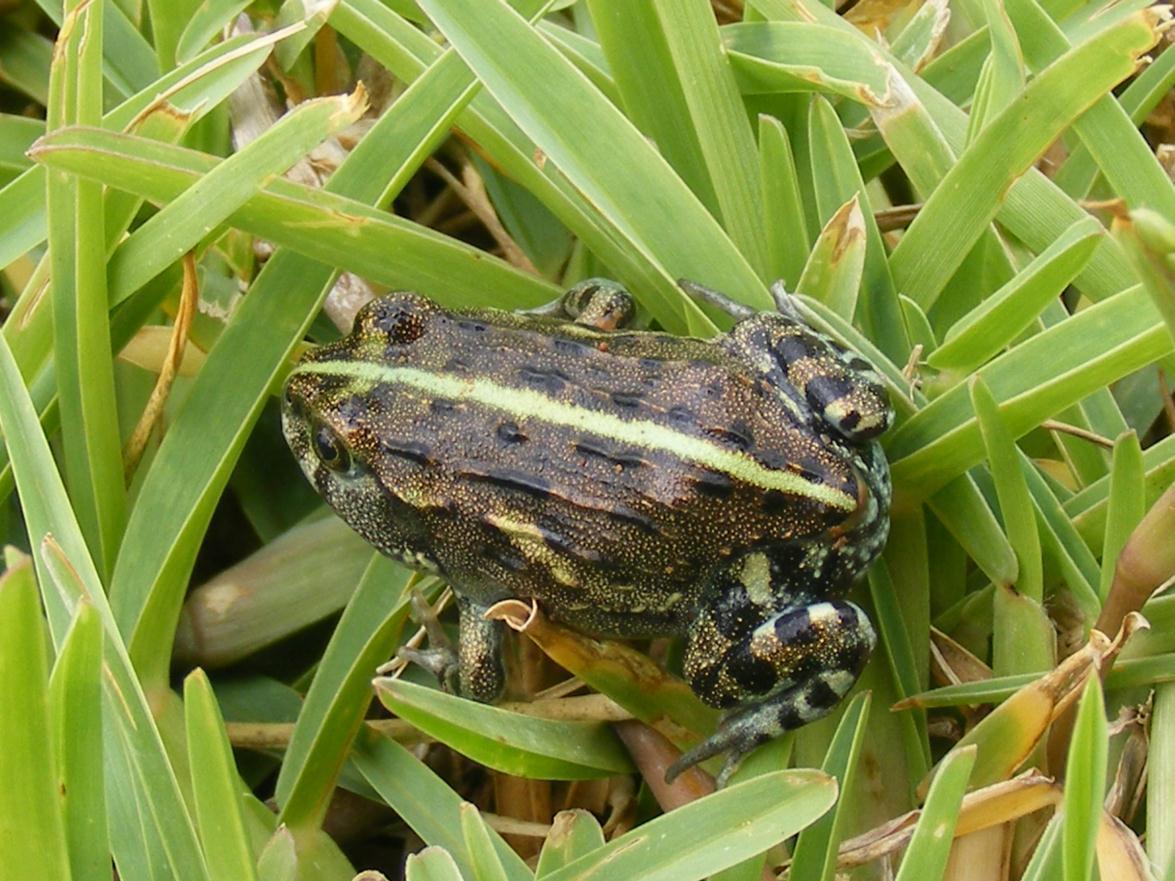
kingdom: Animalia
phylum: Chordata
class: Amphibia
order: Anura
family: Pyxicephalidae
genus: Pyxicephalus
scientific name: Pyxicephalus adspersus
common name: African bullfrog
